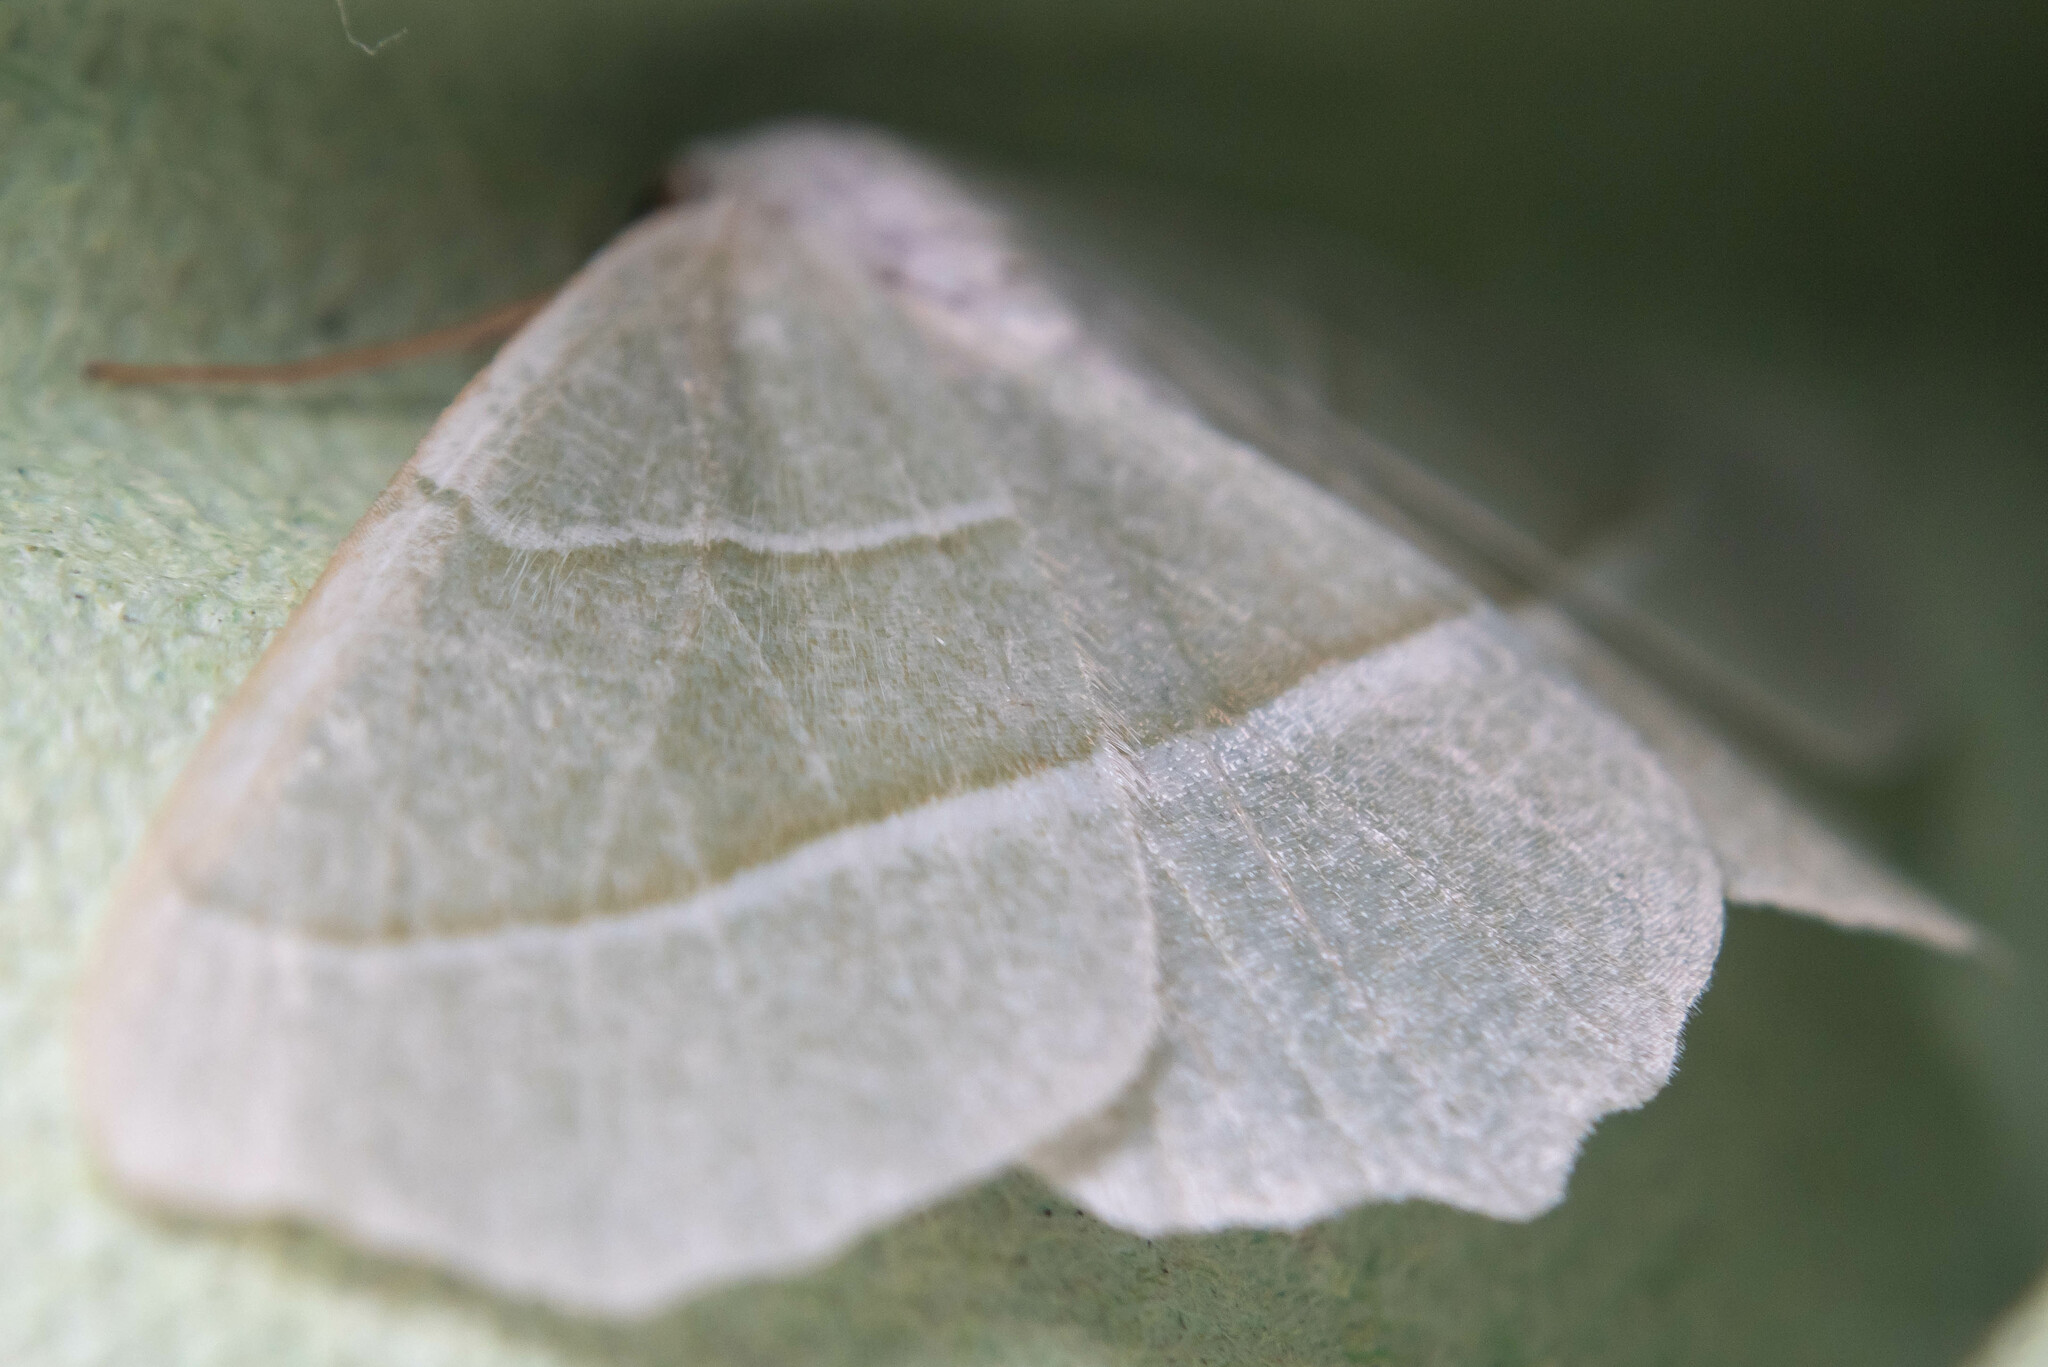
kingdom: Animalia
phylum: Arthropoda
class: Insecta
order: Lepidoptera
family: Geometridae
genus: Campaea
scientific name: Campaea margaritaria
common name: Light emerald
